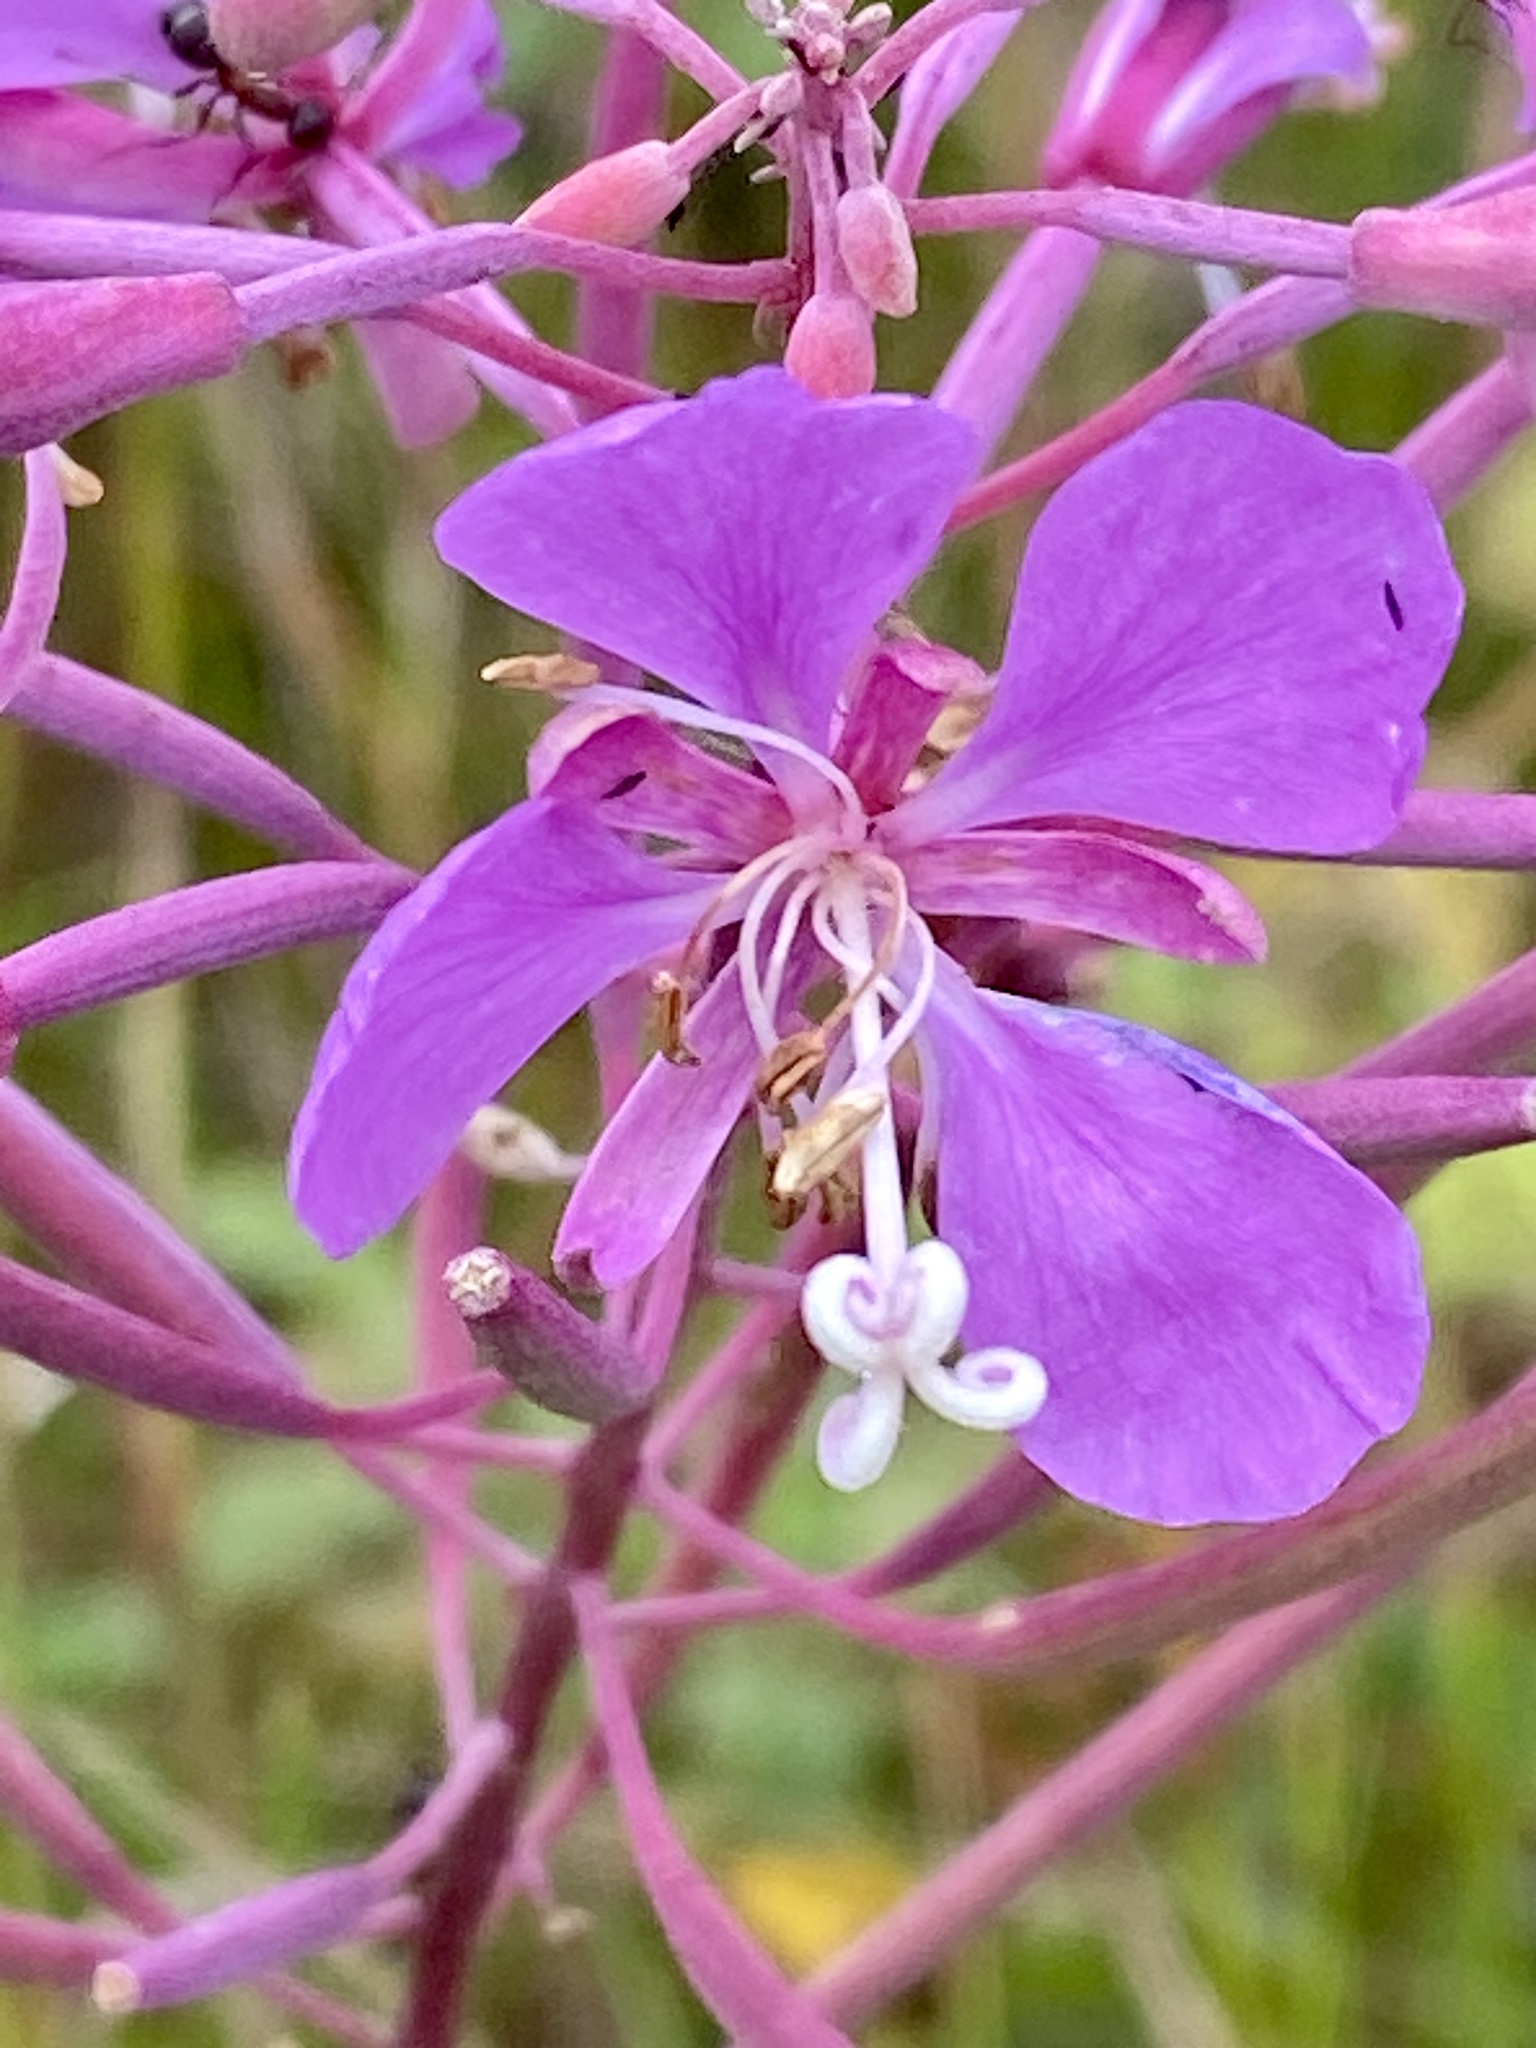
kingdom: Plantae
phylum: Tracheophyta
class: Magnoliopsida
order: Myrtales
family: Onagraceae
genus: Chamaenerion
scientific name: Chamaenerion angustifolium
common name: Fireweed
